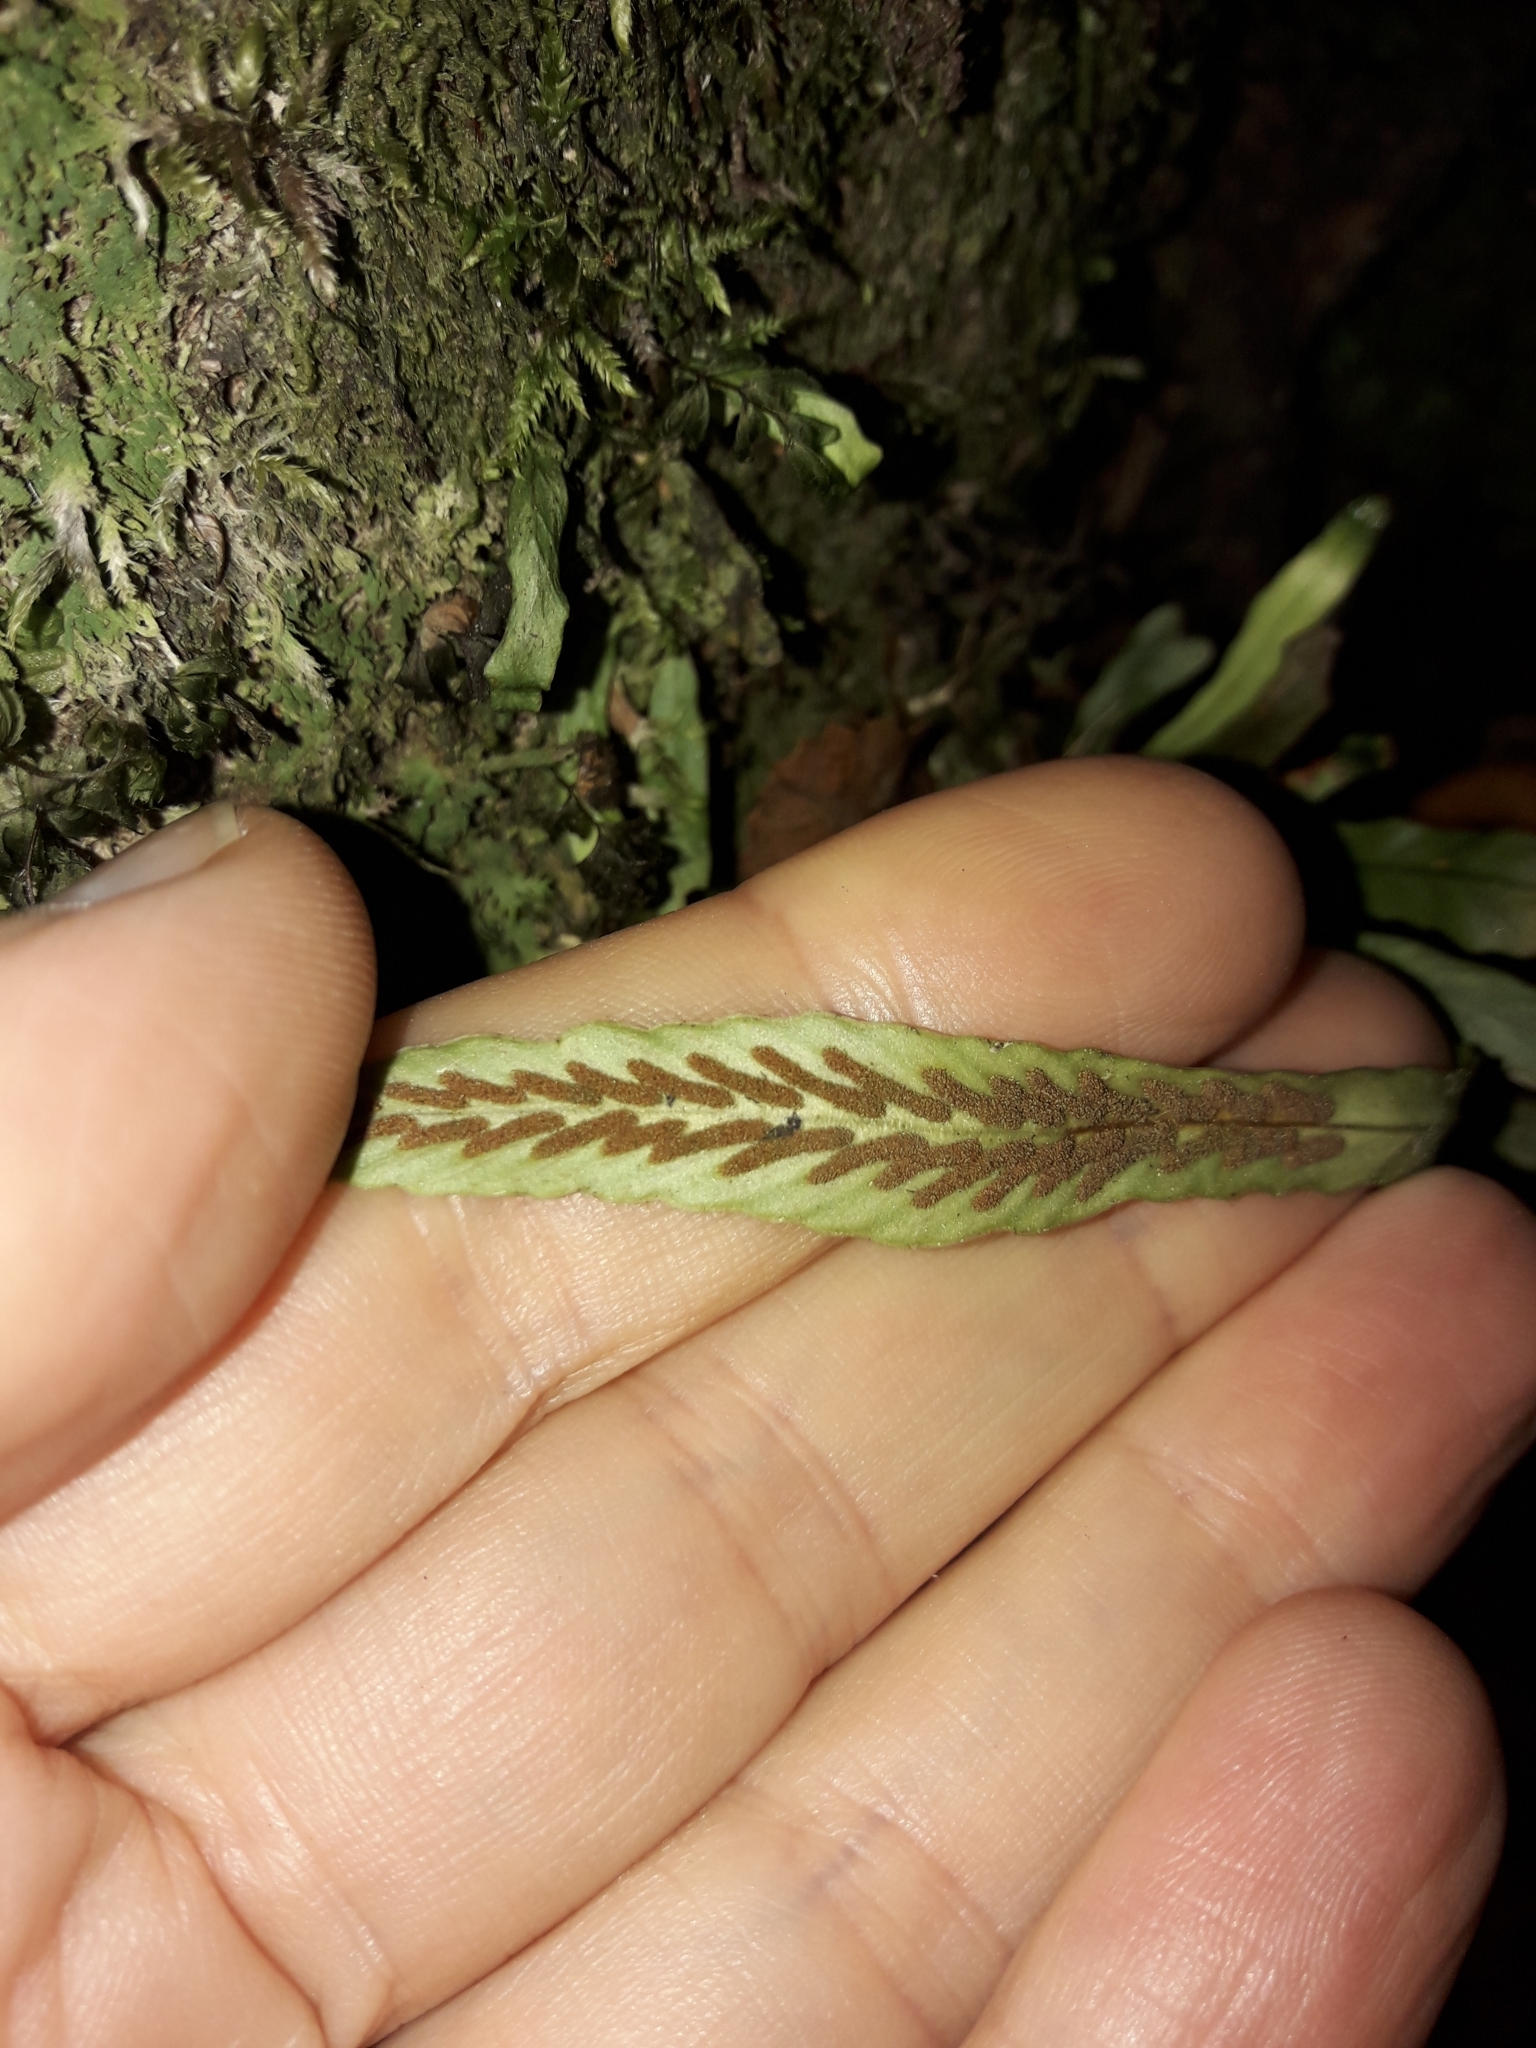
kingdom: Plantae
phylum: Tracheophyta
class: Polypodiopsida
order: Polypodiales
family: Polypodiaceae
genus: Notogrammitis
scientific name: Notogrammitis billardierei
